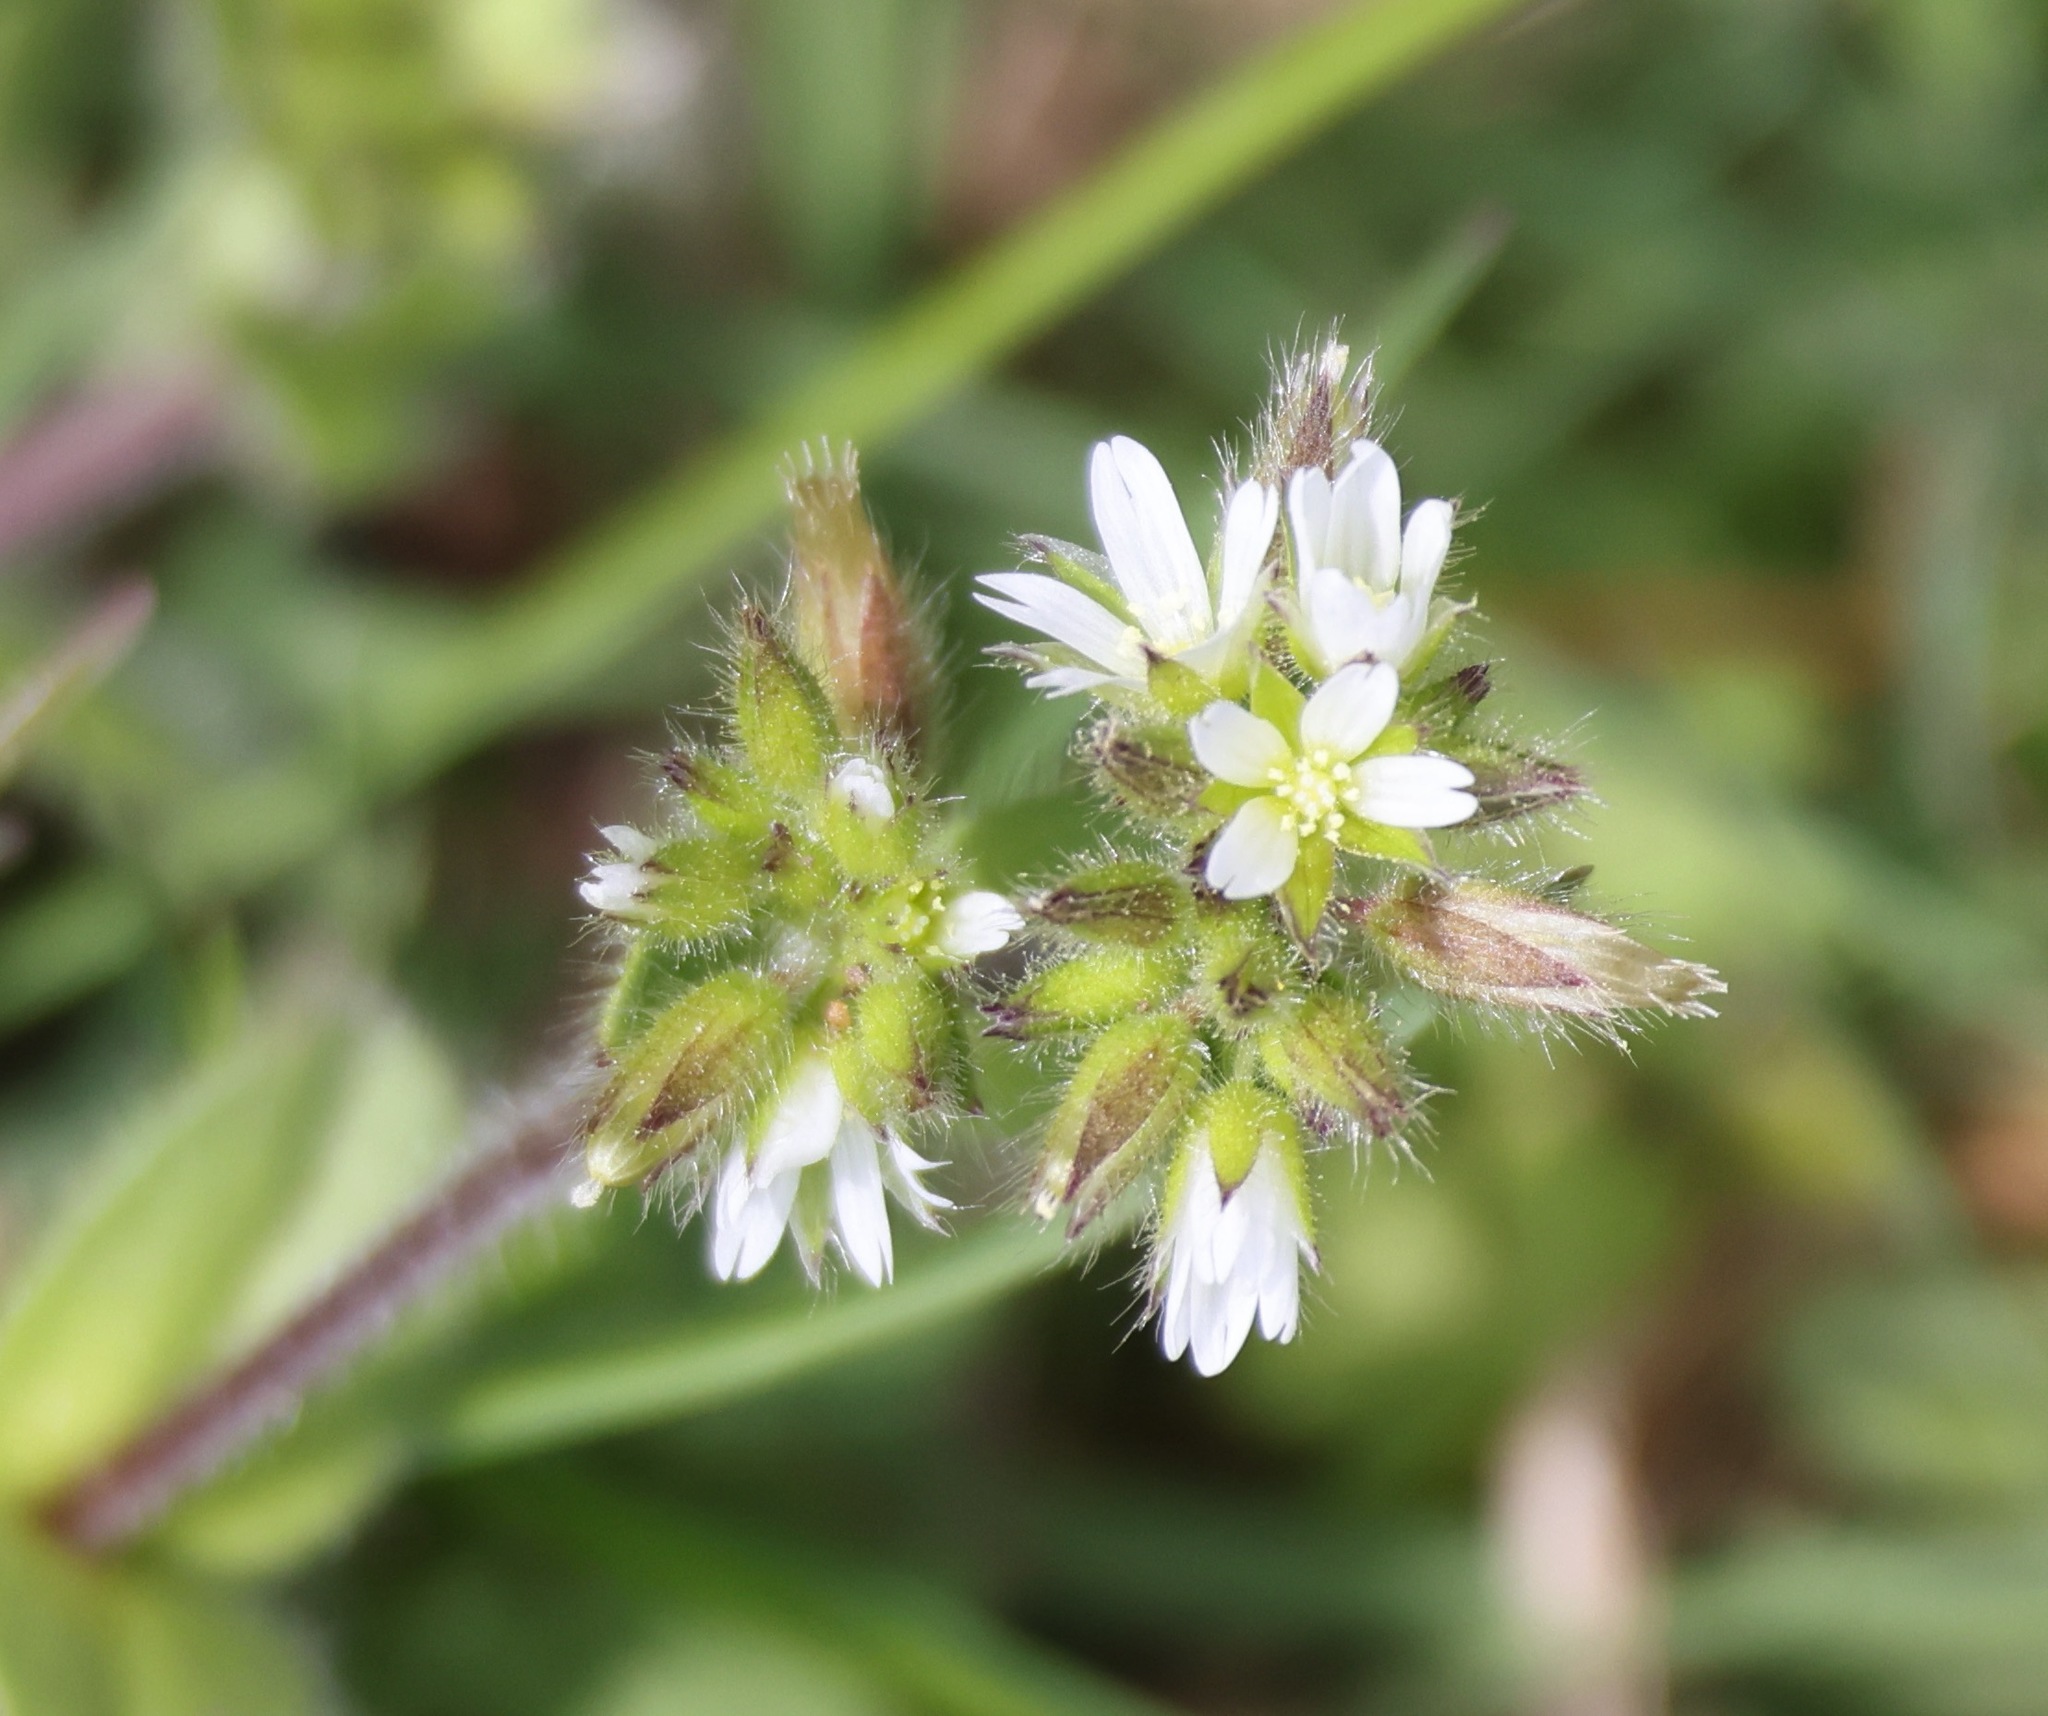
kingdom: Plantae
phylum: Tracheophyta
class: Magnoliopsida
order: Caryophyllales
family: Caryophyllaceae
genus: Cerastium
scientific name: Cerastium glomeratum
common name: Sticky chickweed
